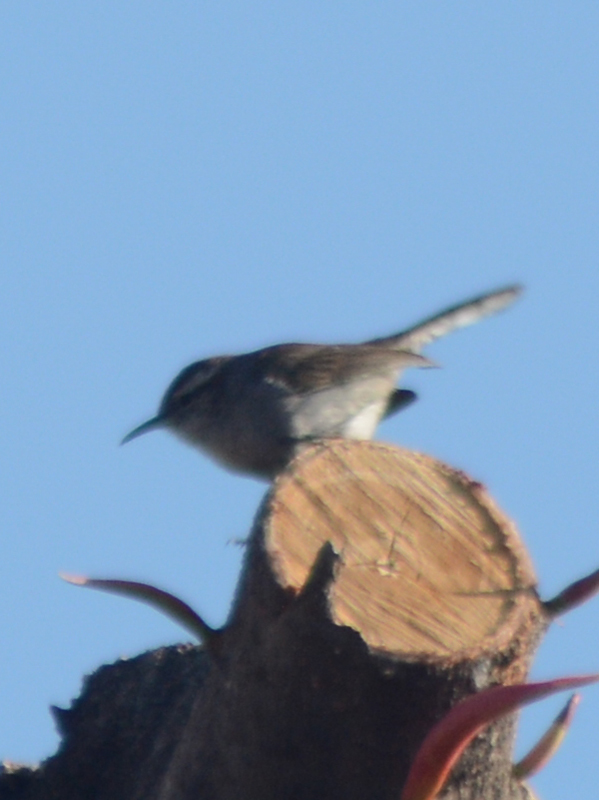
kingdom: Animalia
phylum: Chordata
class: Aves
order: Passeriformes
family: Troglodytidae
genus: Thryomanes
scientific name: Thryomanes bewickii
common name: Bewick's wren
